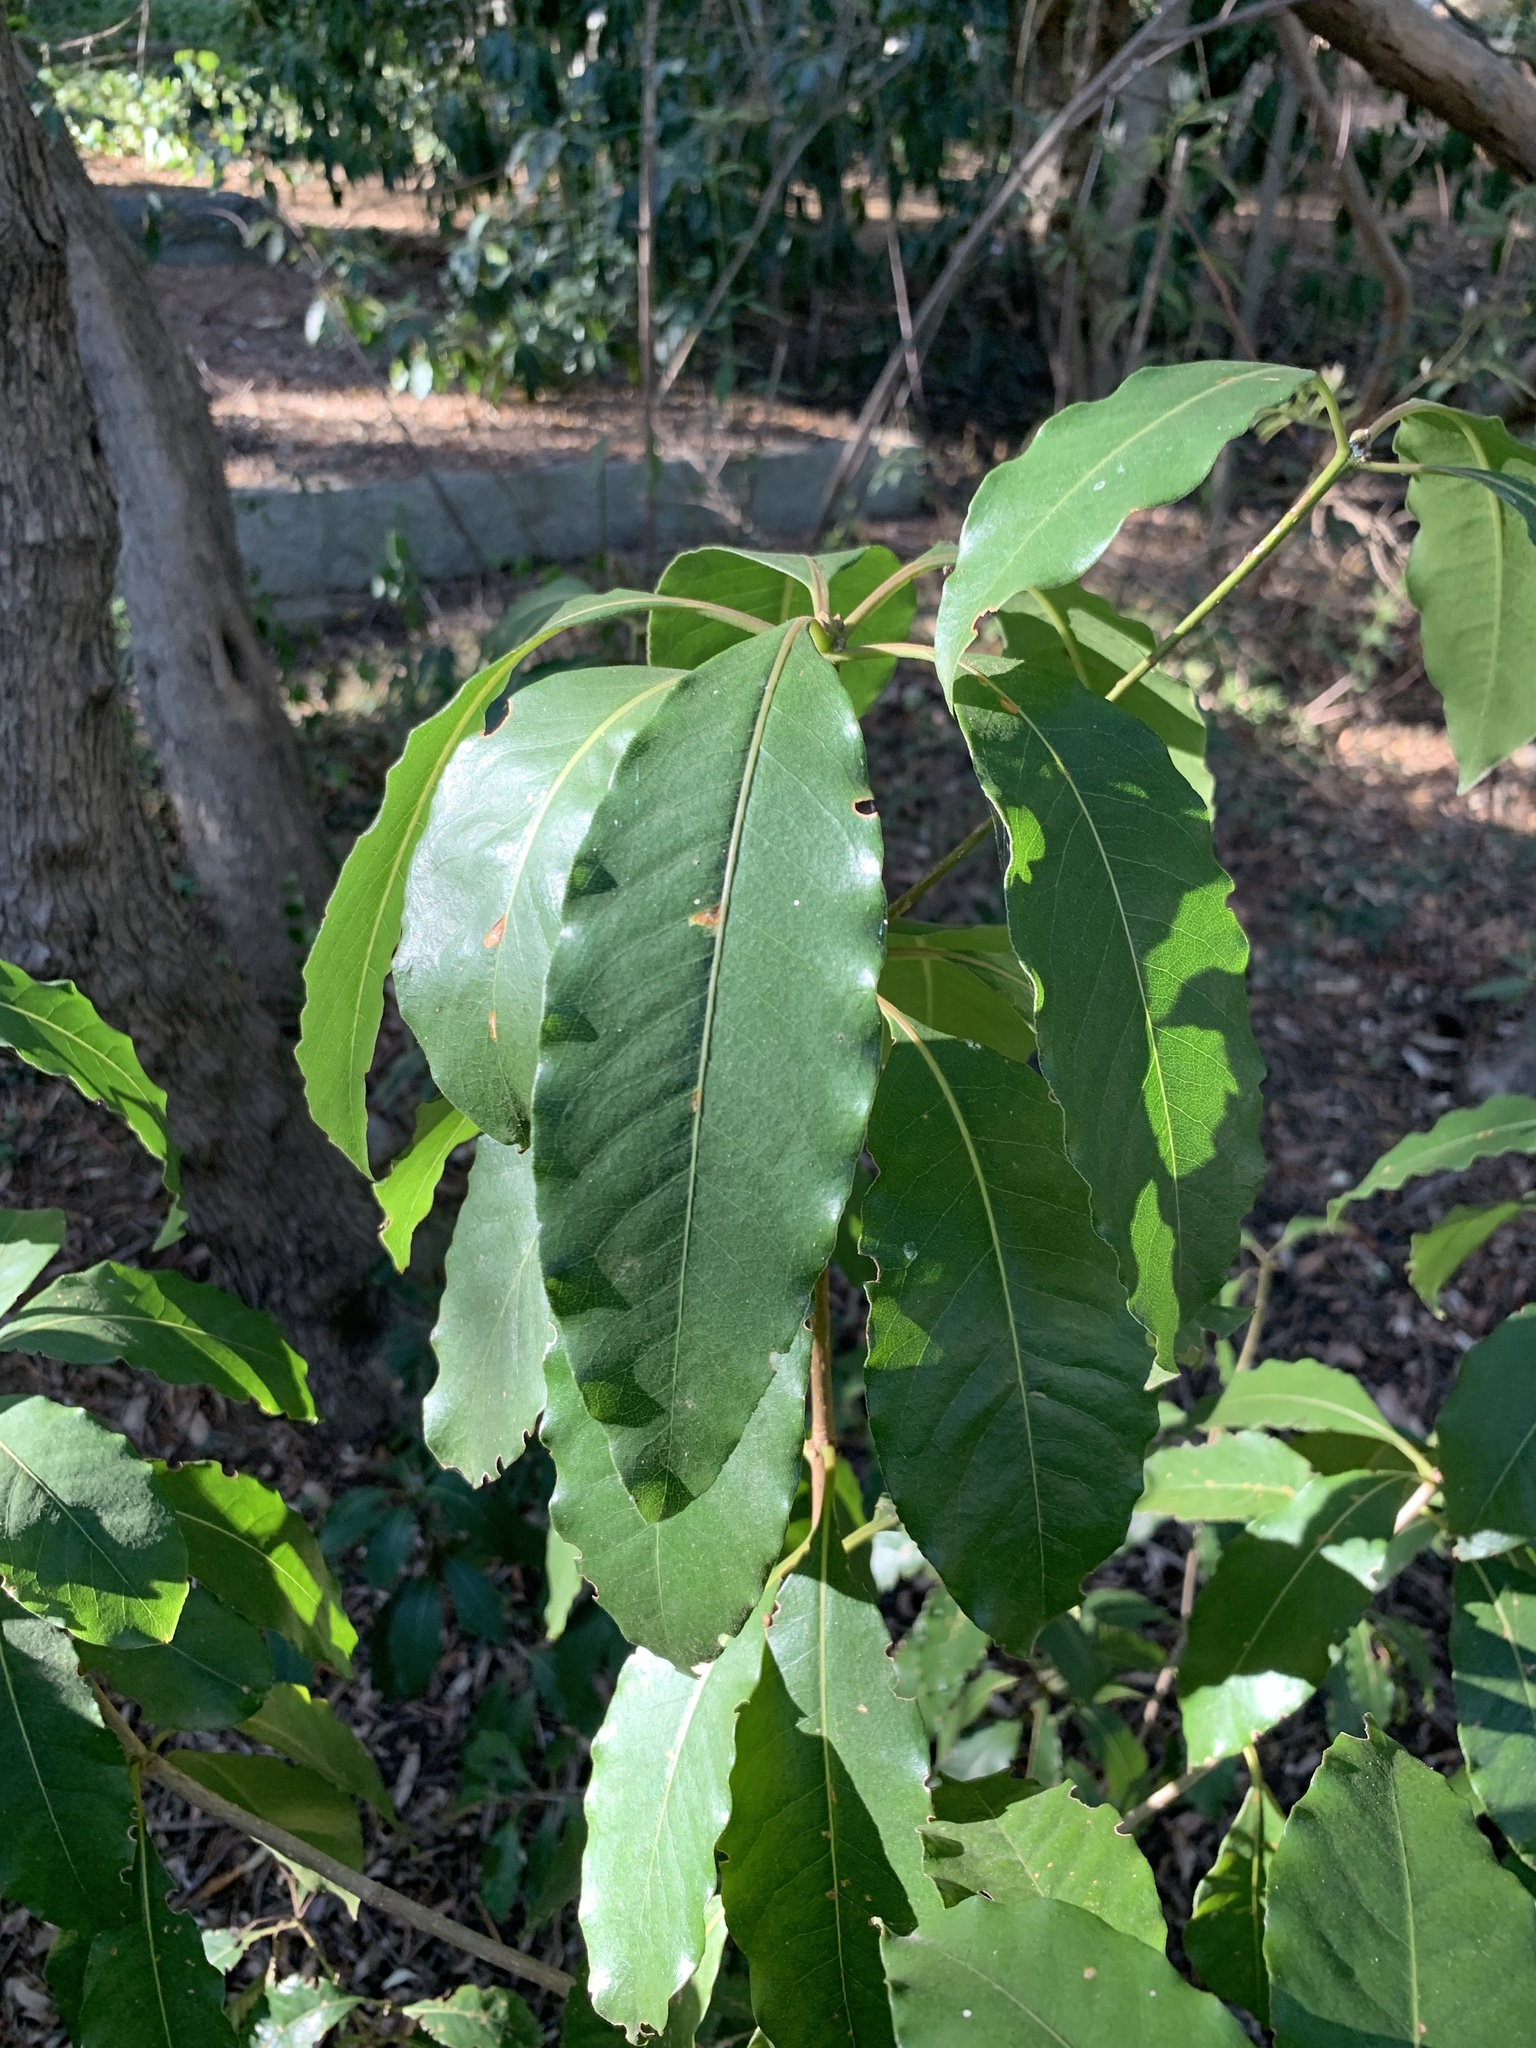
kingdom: Plantae
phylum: Tracheophyta
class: Magnoliopsida
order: Apiales
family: Pittosporaceae
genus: Pittosporum
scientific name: Pittosporum undulatum
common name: Australian cheesewood
